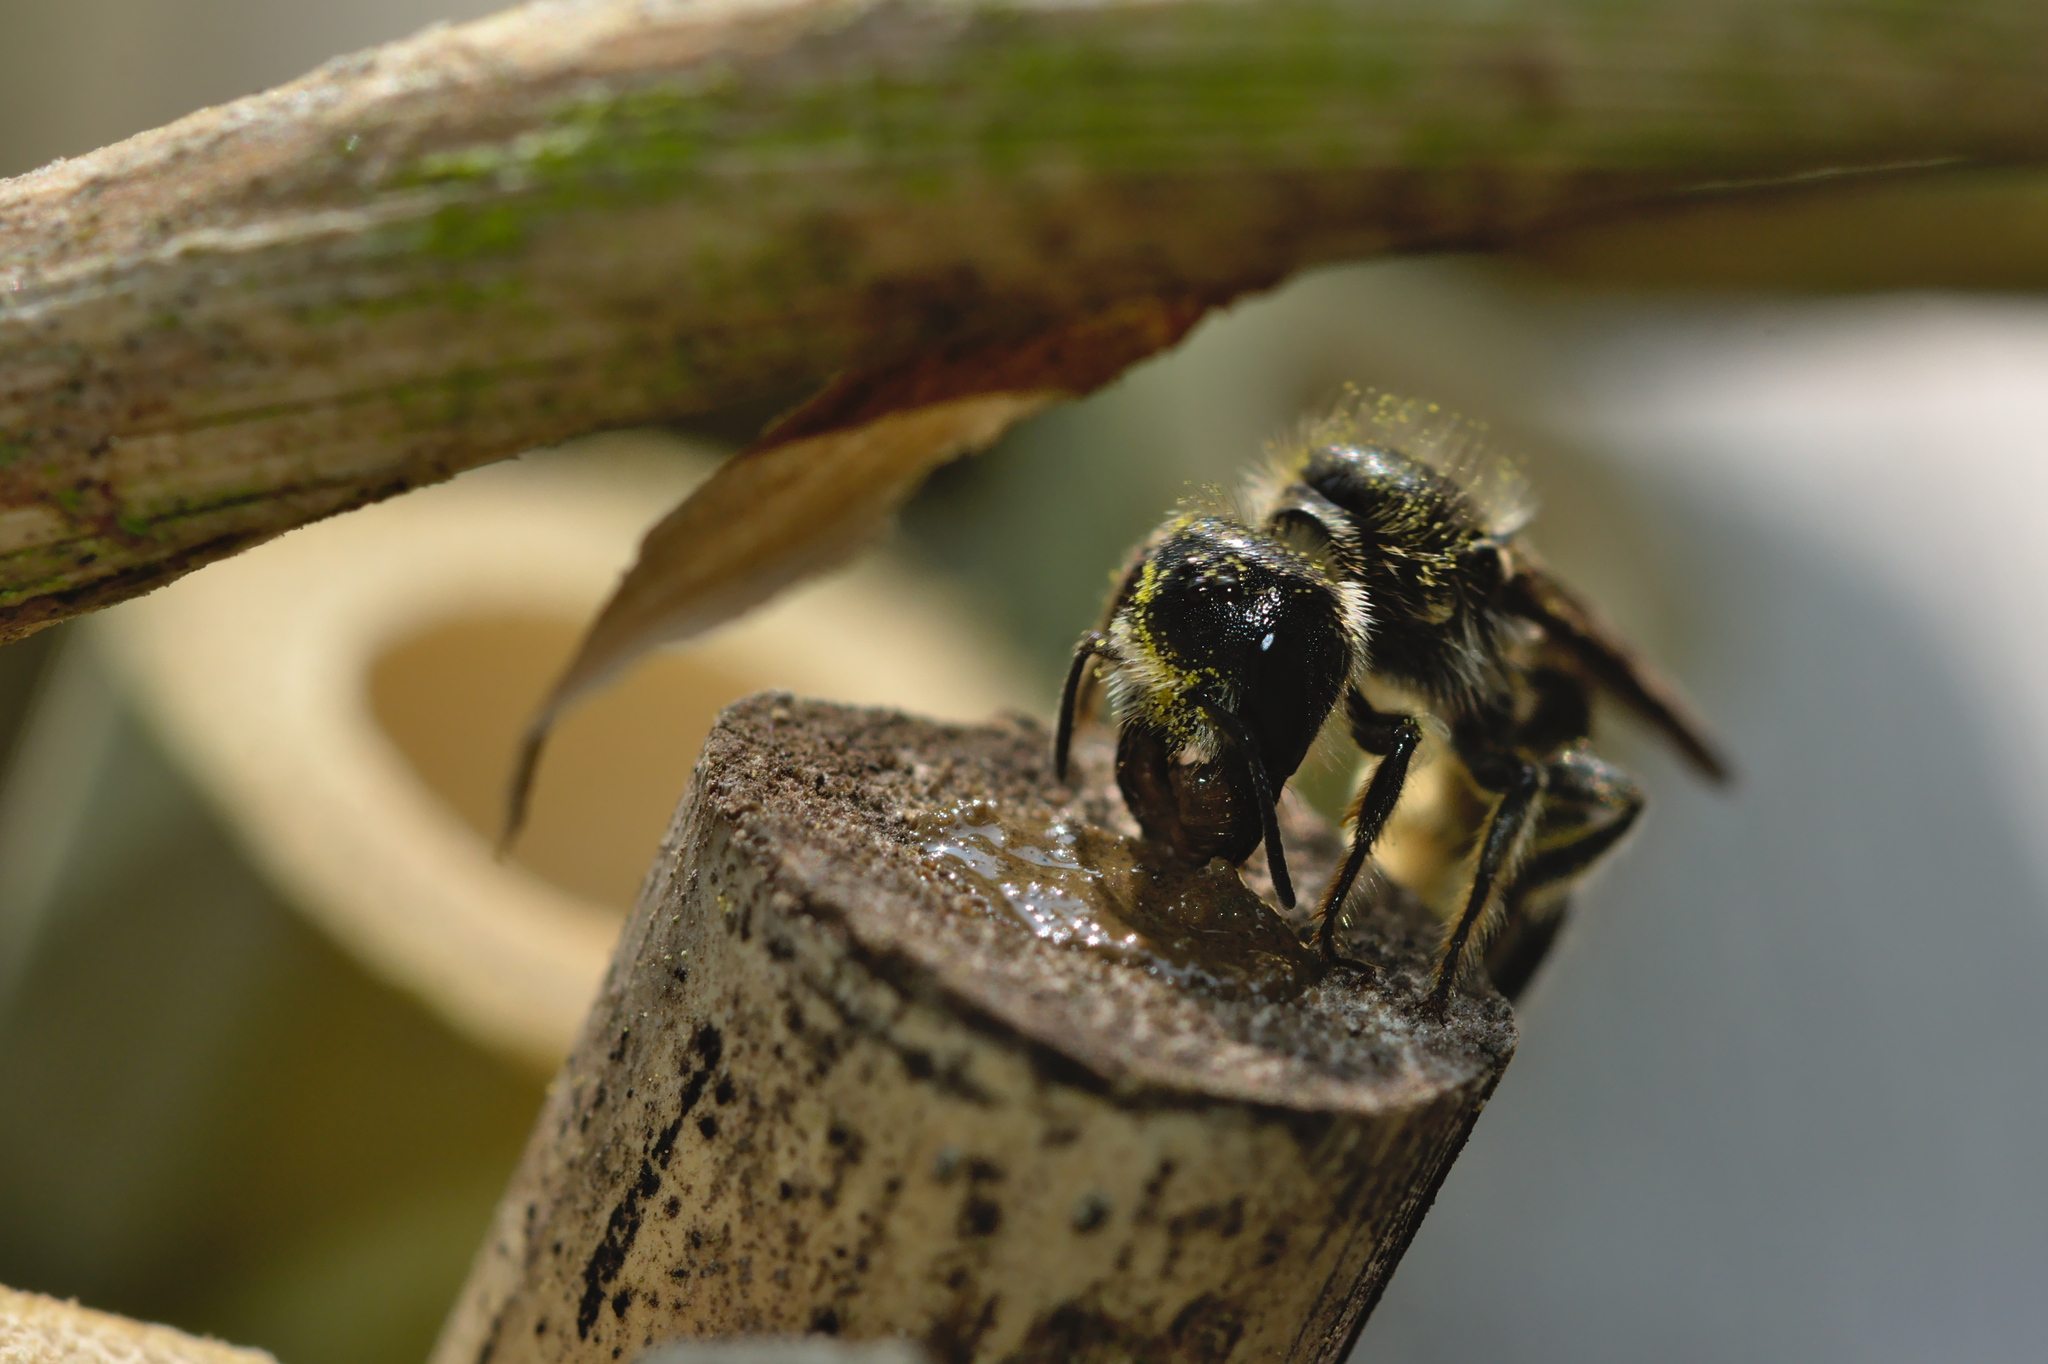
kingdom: Animalia
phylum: Arthropoda
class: Insecta
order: Hymenoptera
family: Megachilidae
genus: Chelostoma
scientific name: Chelostoma florisomne
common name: Sleepy carpenter bee
